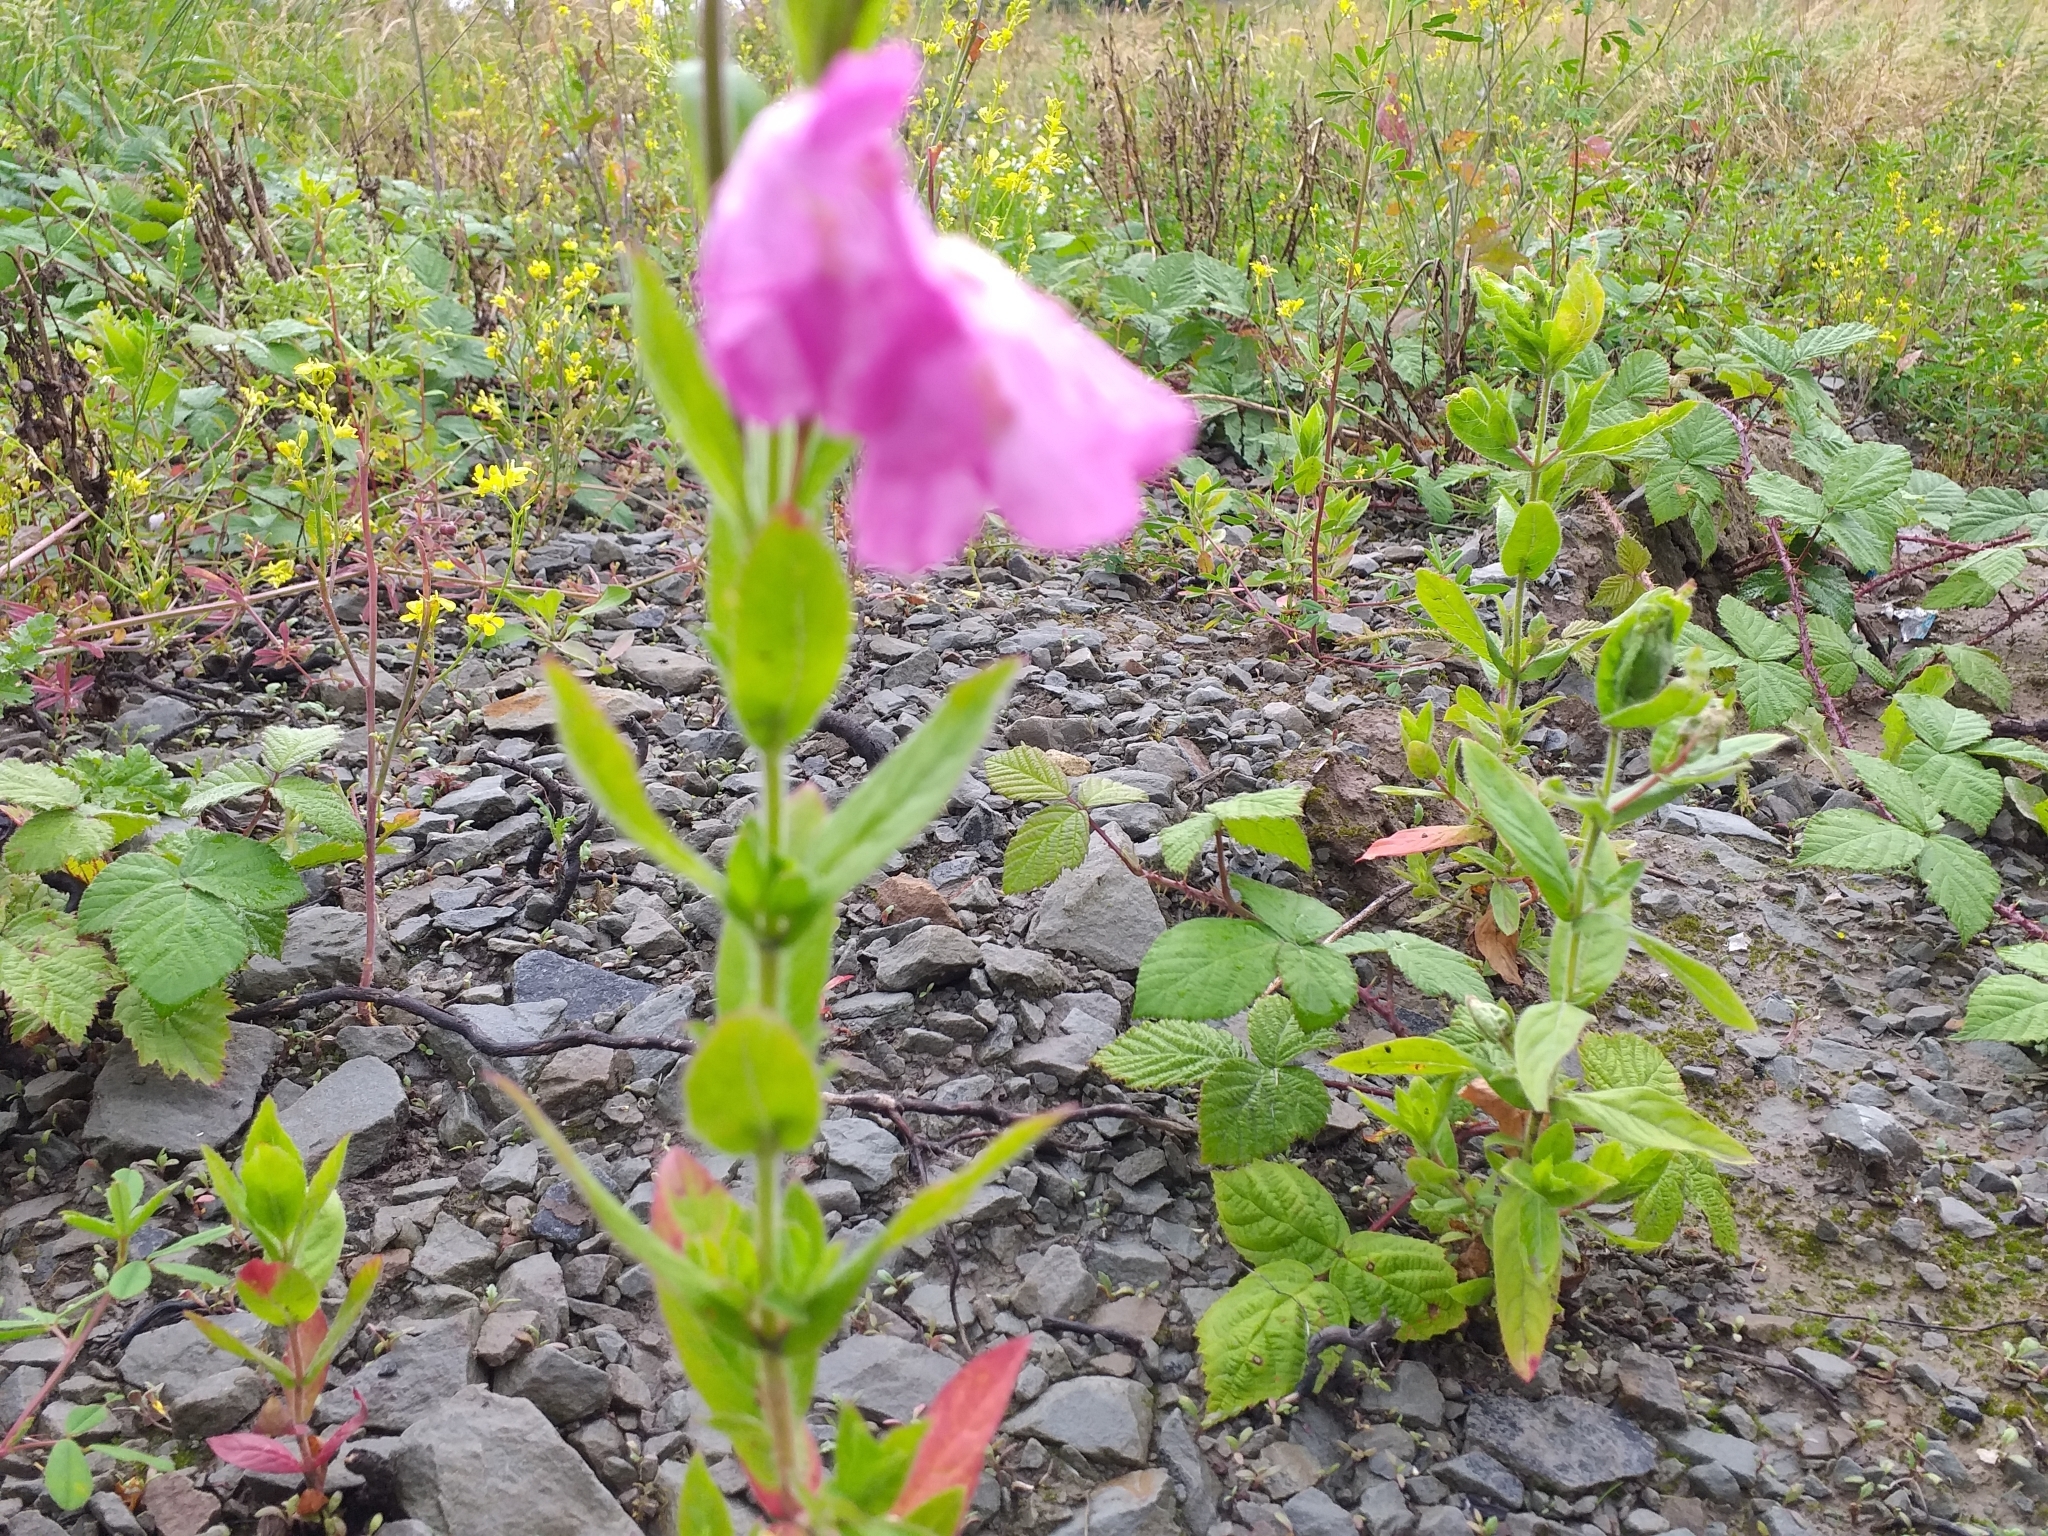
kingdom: Plantae
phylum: Tracheophyta
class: Magnoliopsida
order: Myrtales
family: Onagraceae
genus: Epilobium
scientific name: Epilobium hirsutum
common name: Great willowherb
